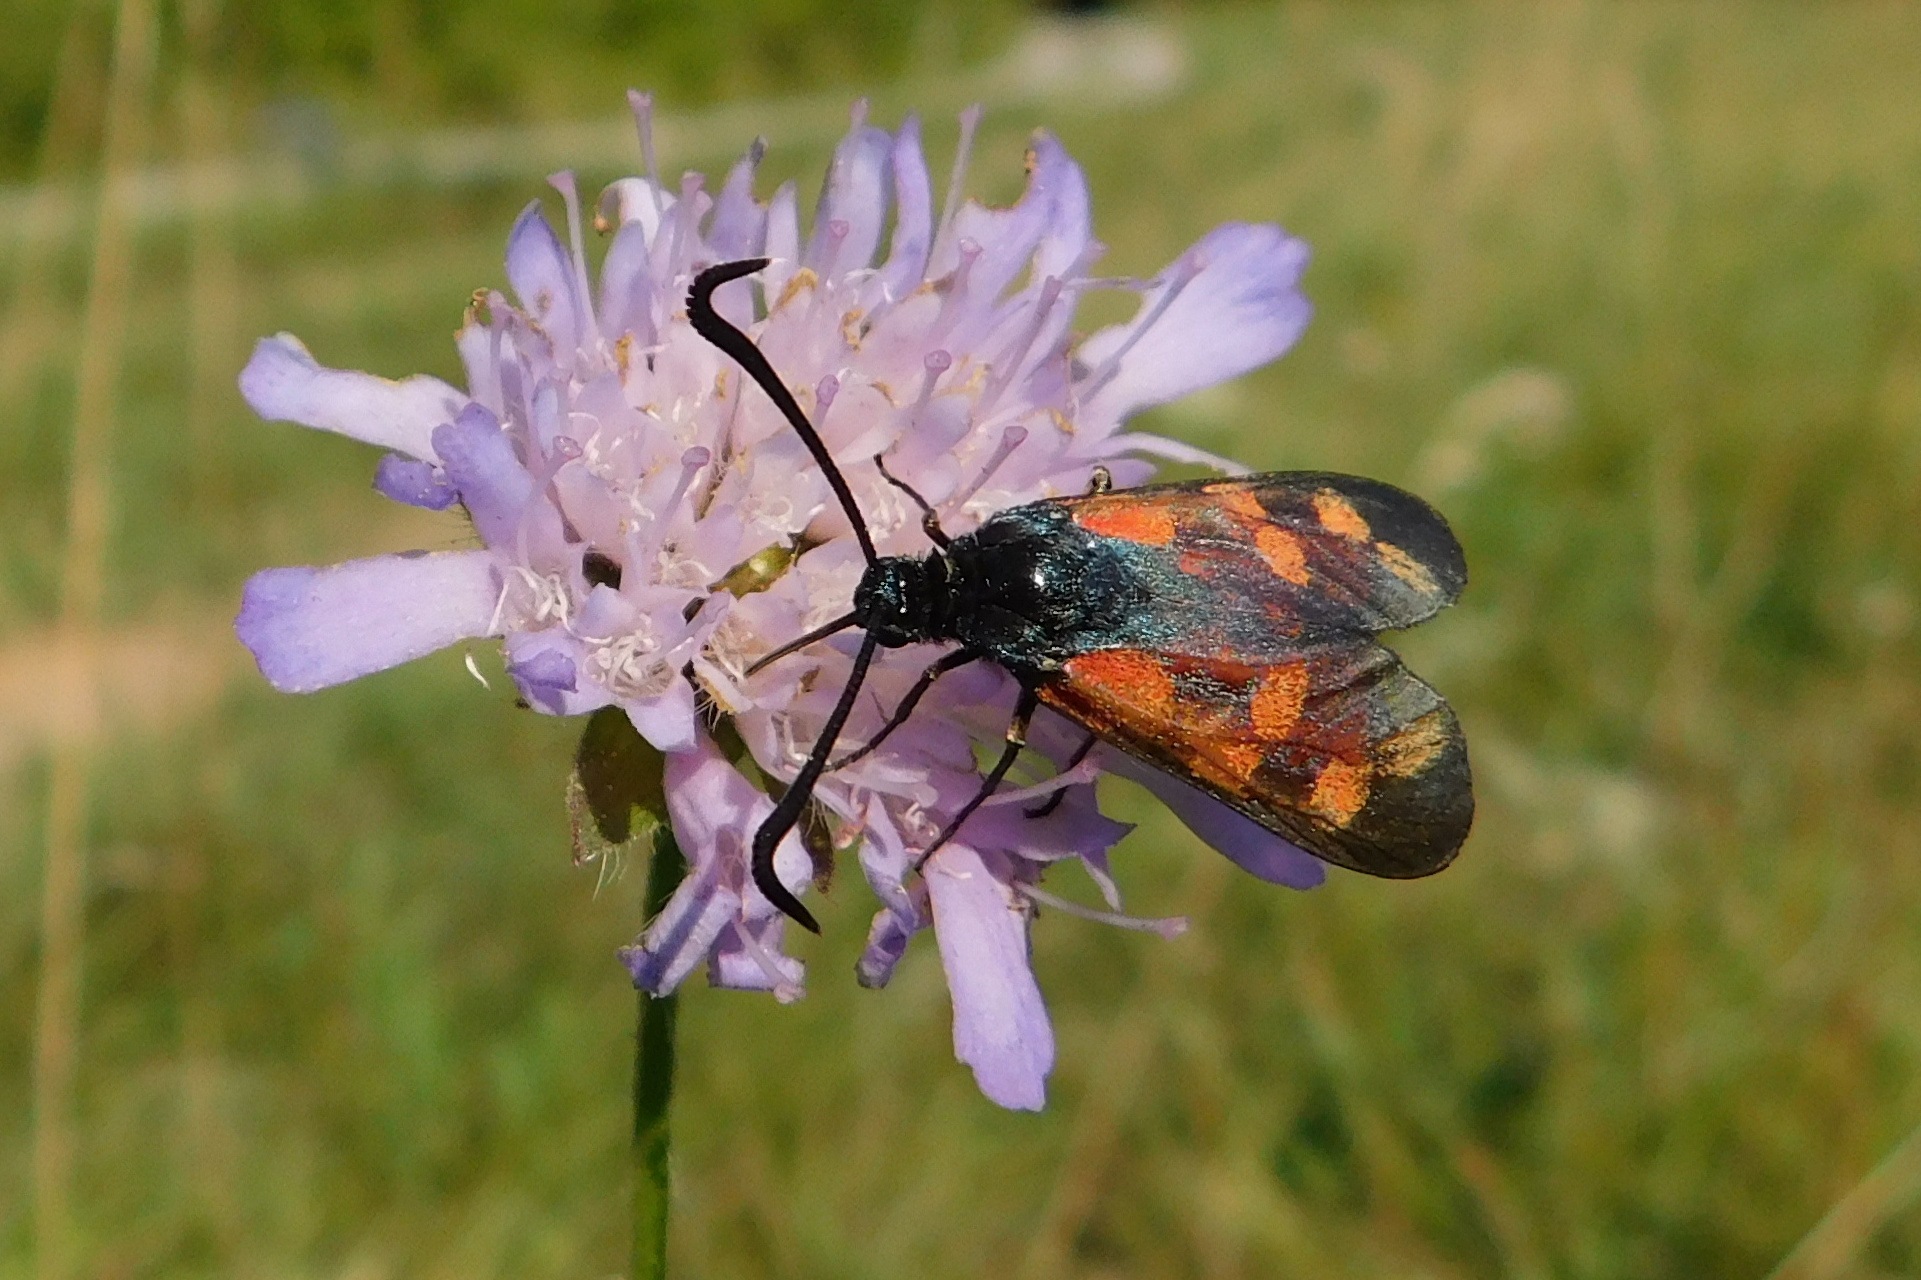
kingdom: Animalia
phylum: Arthropoda
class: Insecta
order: Lepidoptera
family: Zygaenidae
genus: Zygaena
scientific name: Zygaena filipendulae
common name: Six-spot burnet
